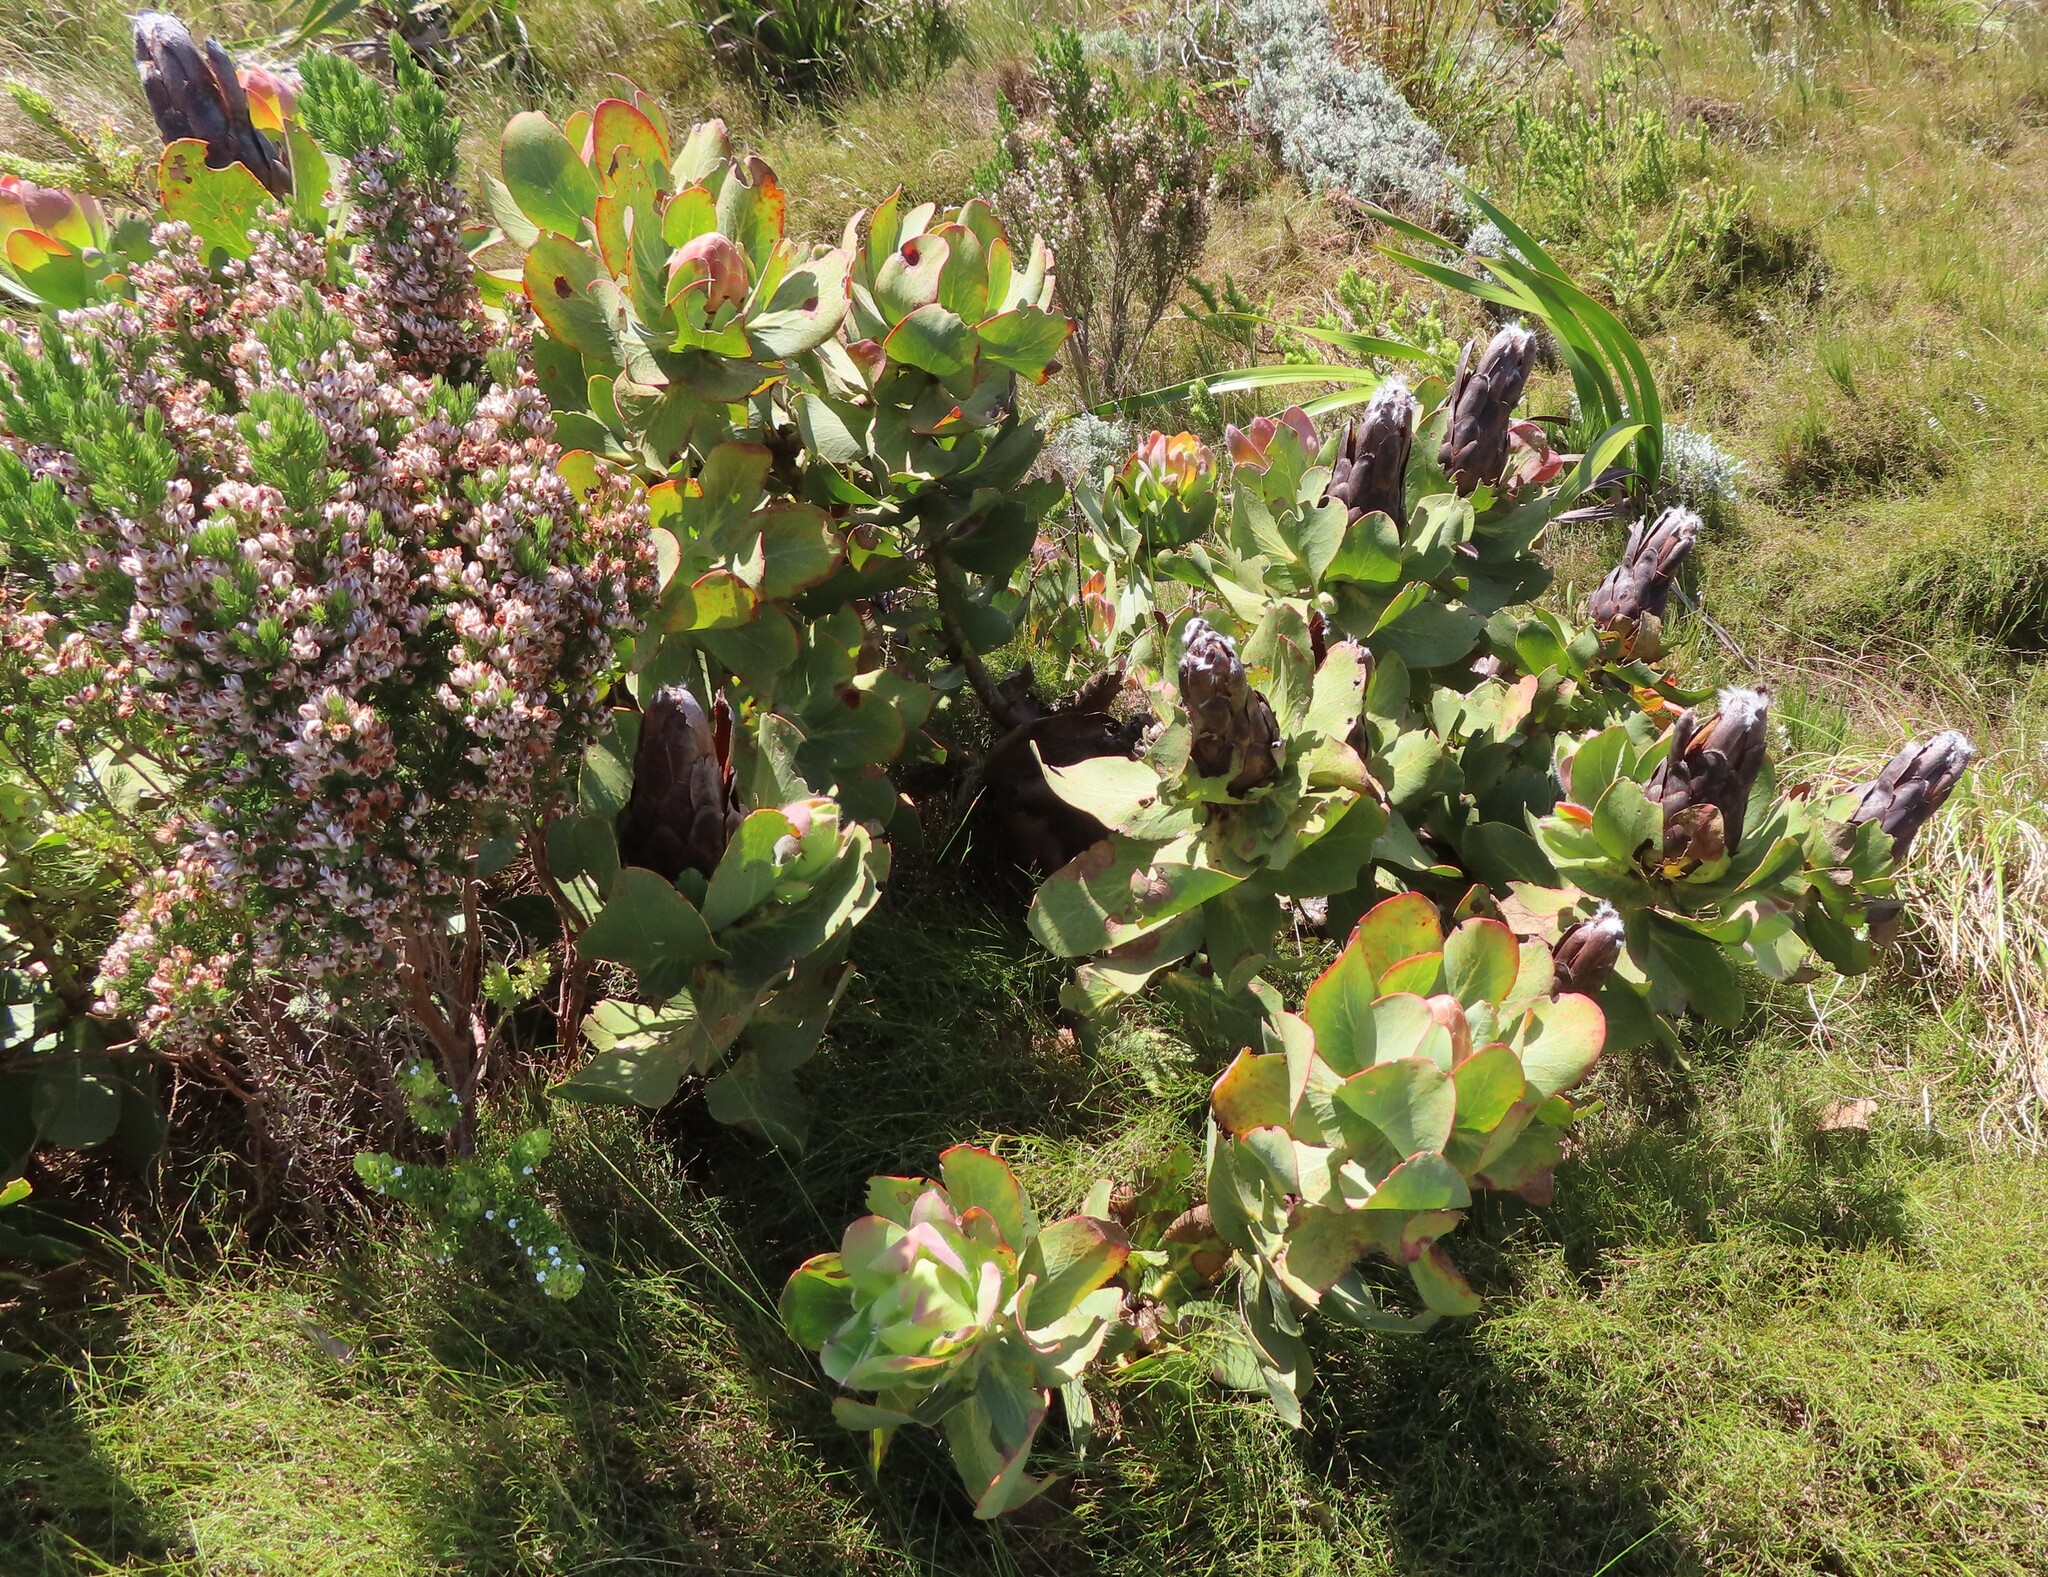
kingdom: Plantae
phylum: Tracheophyta
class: Magnoliopsida
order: Proteales
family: Proteaceae
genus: Protea
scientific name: Protea grandiceps
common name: Red sugarbush
